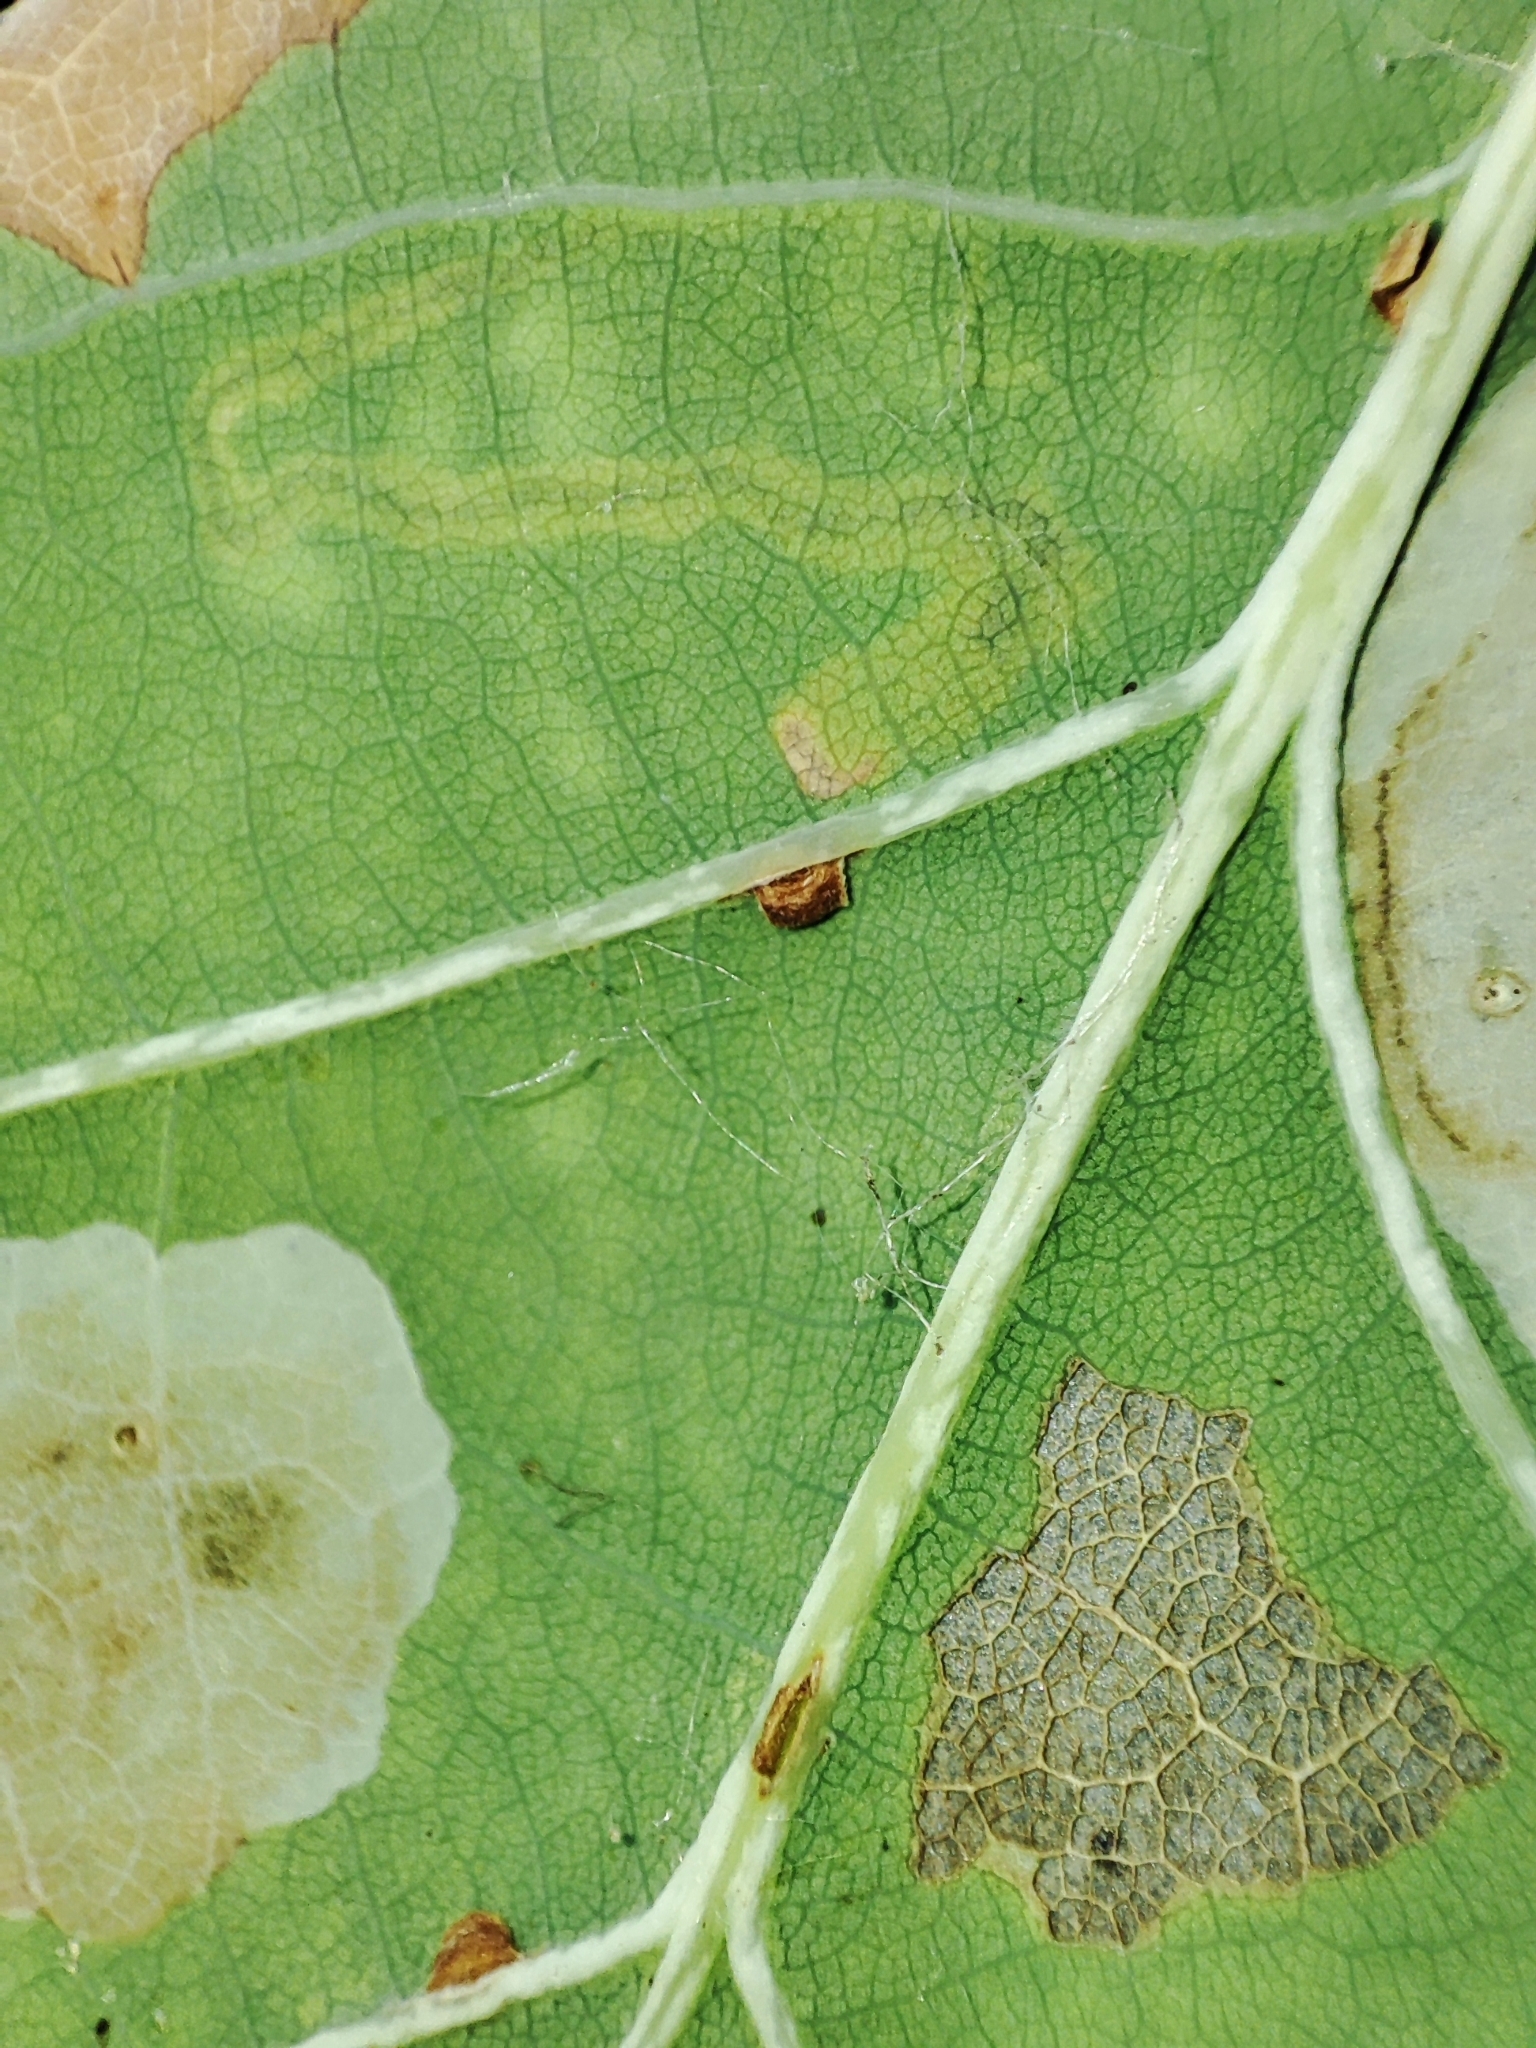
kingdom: Animalia
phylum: Arthropoda
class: Insecta
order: Hymenoptera
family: Cynipidae
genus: Neuroterus
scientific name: Neuroterus anthracinus
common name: Oyster gall
